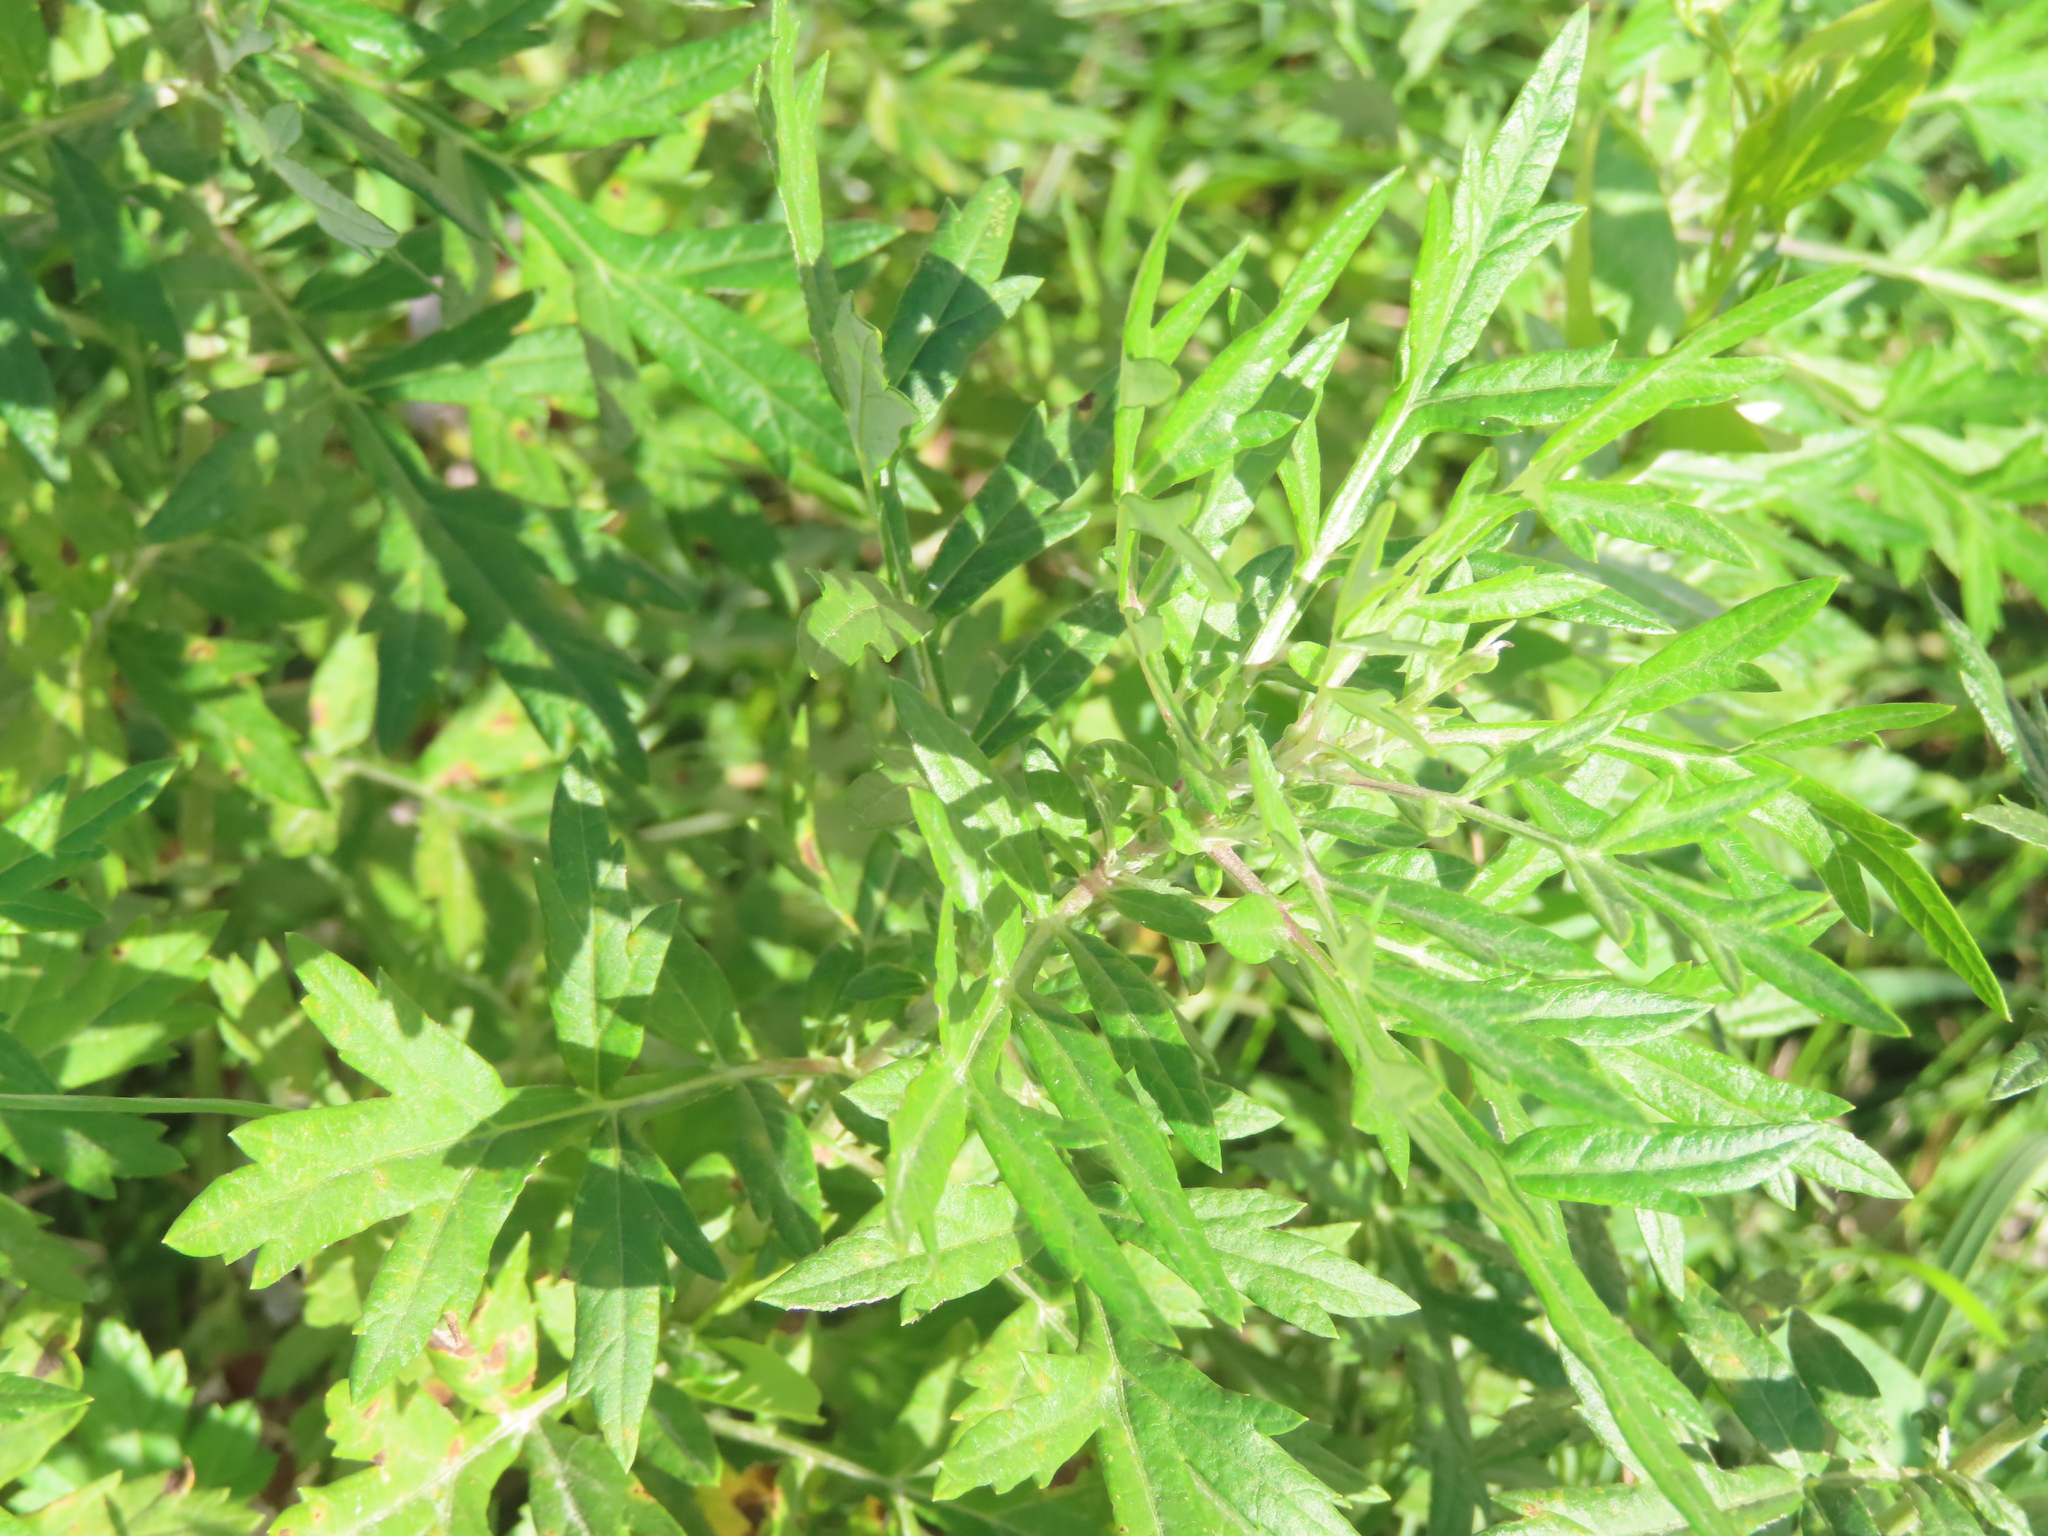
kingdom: Plantae
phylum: Tracheophyta
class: Magnoliopsida
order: Asterales
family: Asteraceae
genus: Artemisia
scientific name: Artemisia vulgaris
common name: Mugwort
